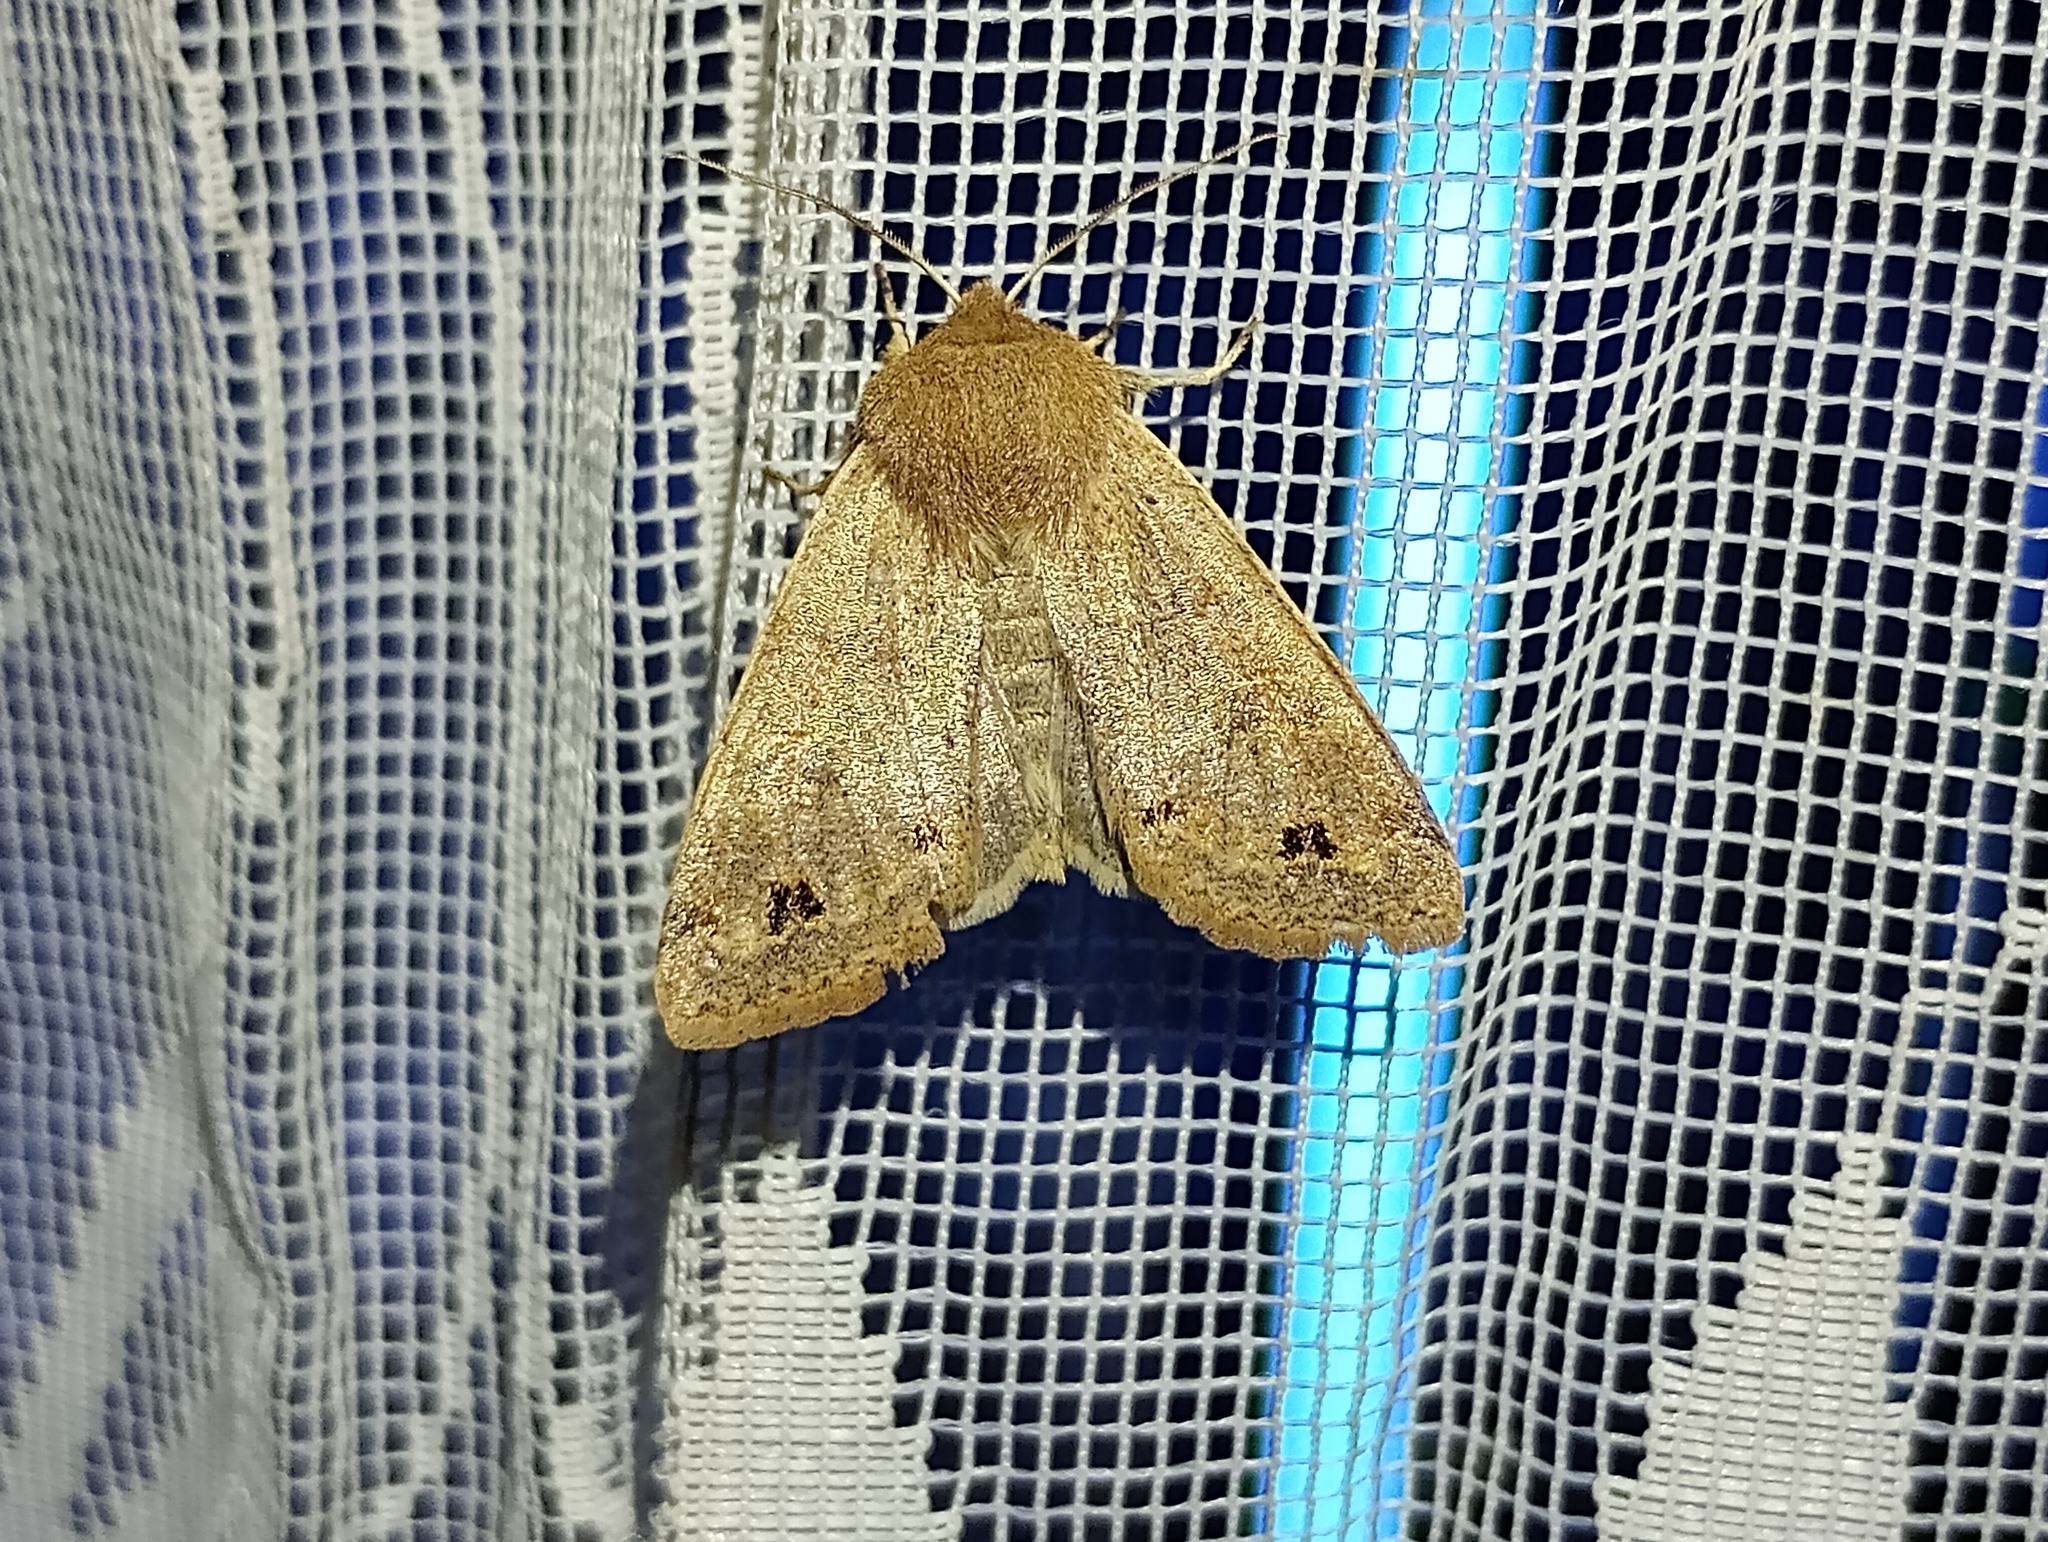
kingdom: Animalia
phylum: Arthropoda
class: Insecta
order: Lepidoptera
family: Noctuidae
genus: Anorthoa
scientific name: Anorthoa munda
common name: Twin-spotted quaker
